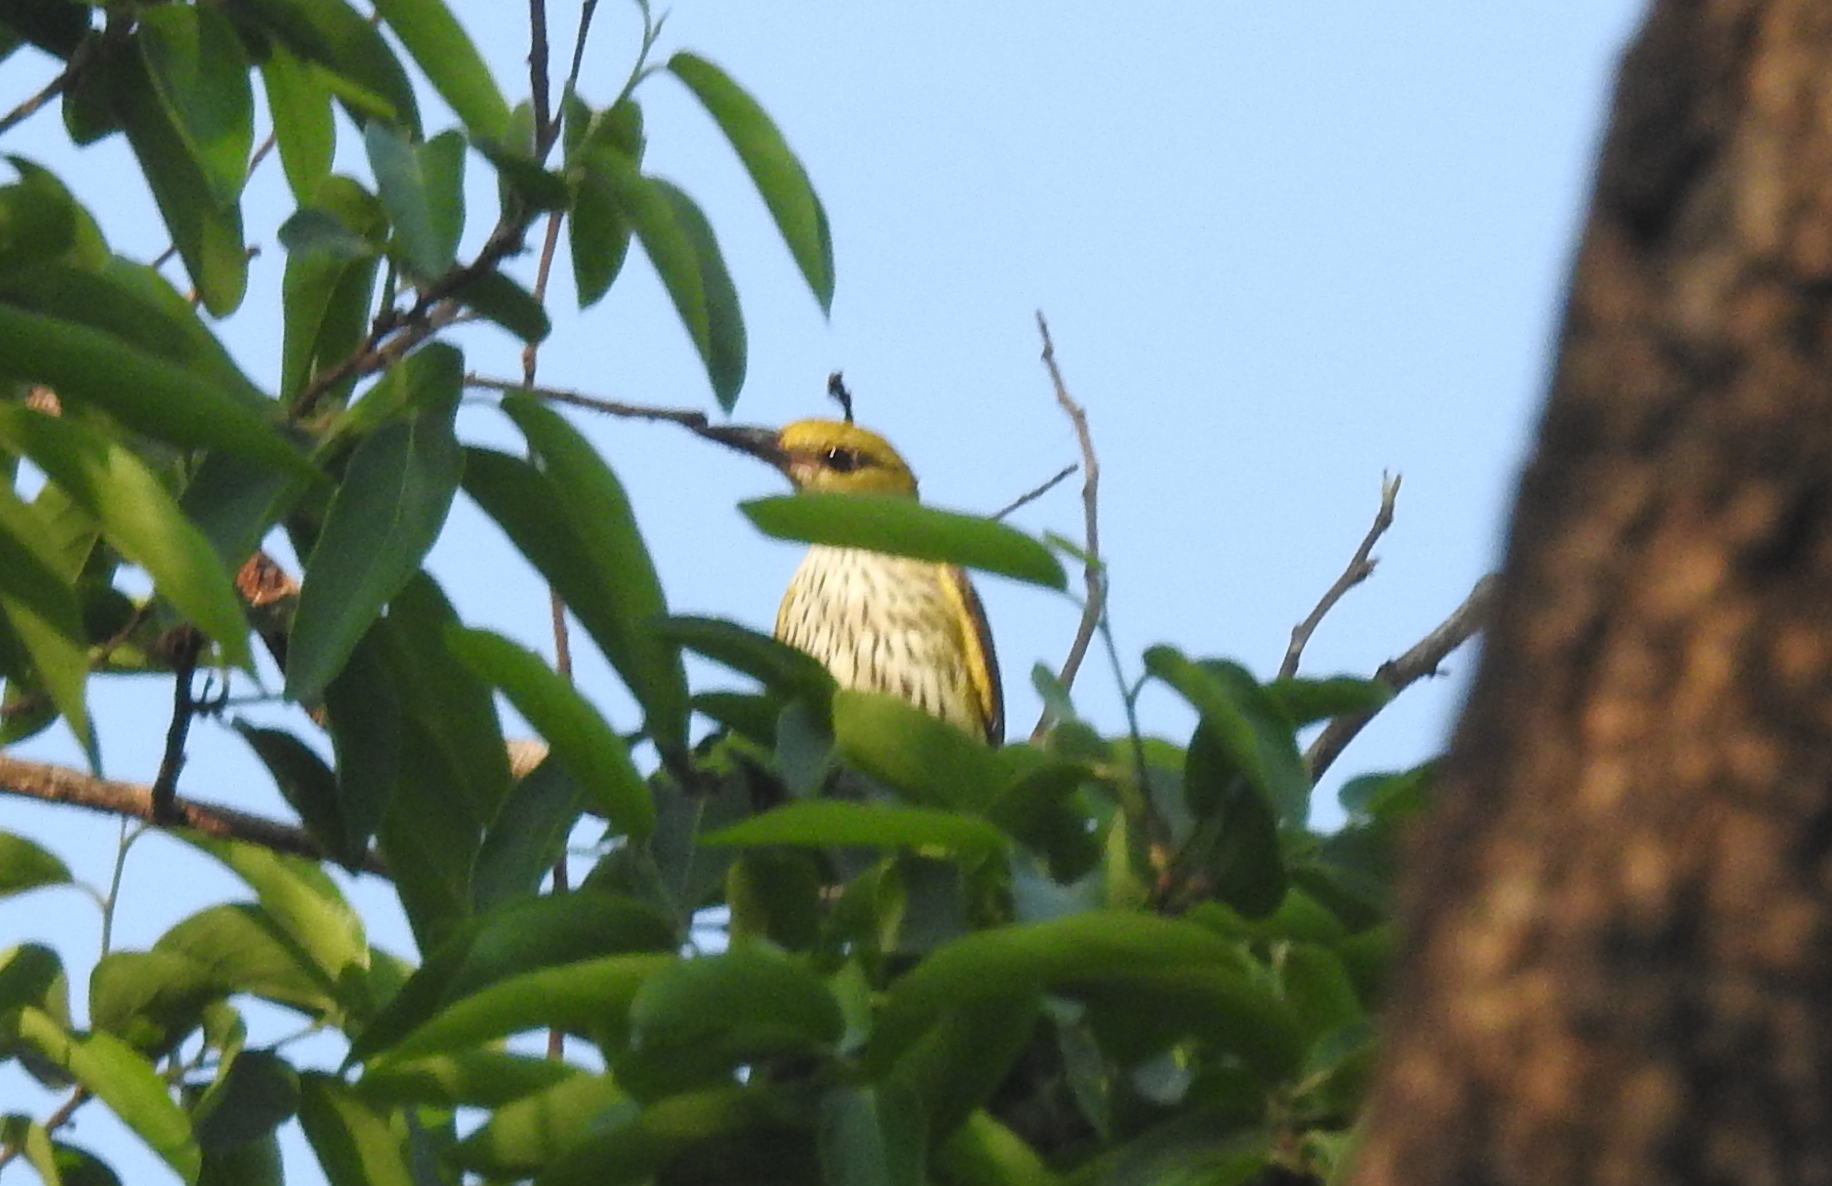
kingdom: Animalia
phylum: Chordata
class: Aves
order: Passeriformes
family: Oriolidae
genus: Oriolus
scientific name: Oriolus kundoo
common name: Indian golden oriole
